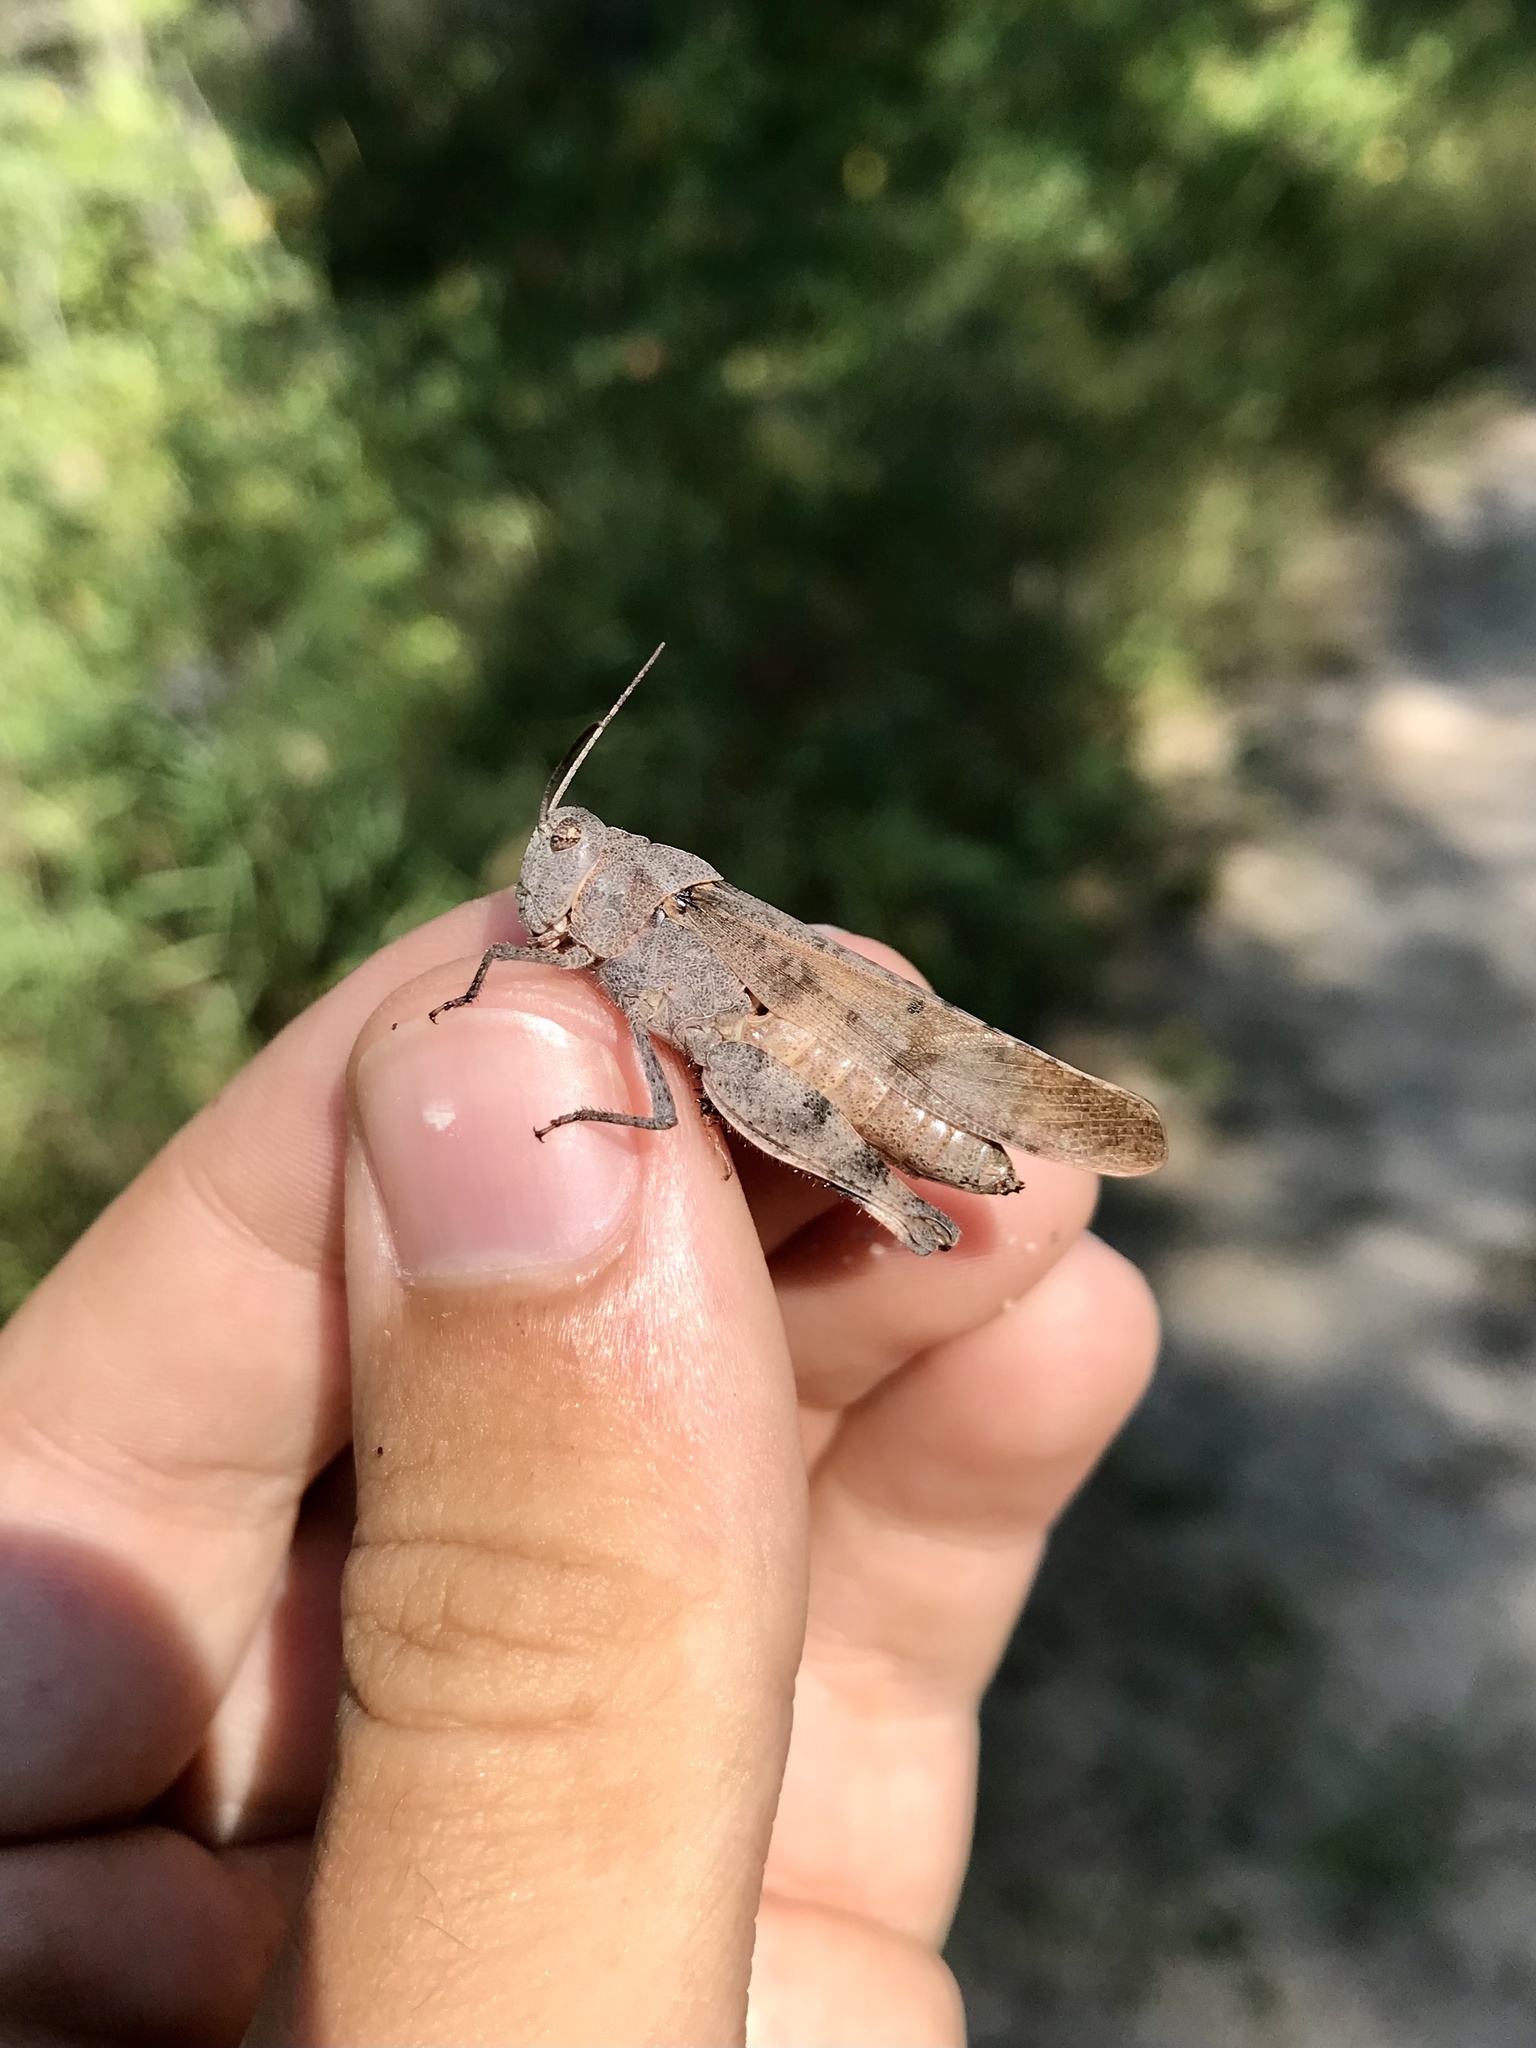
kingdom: Animalia
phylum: Arthropoda
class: Insecta
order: Orthoptera
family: Acrididae
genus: Spharagemon
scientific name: Spharagemon bolli
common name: Boll's grasshopper
